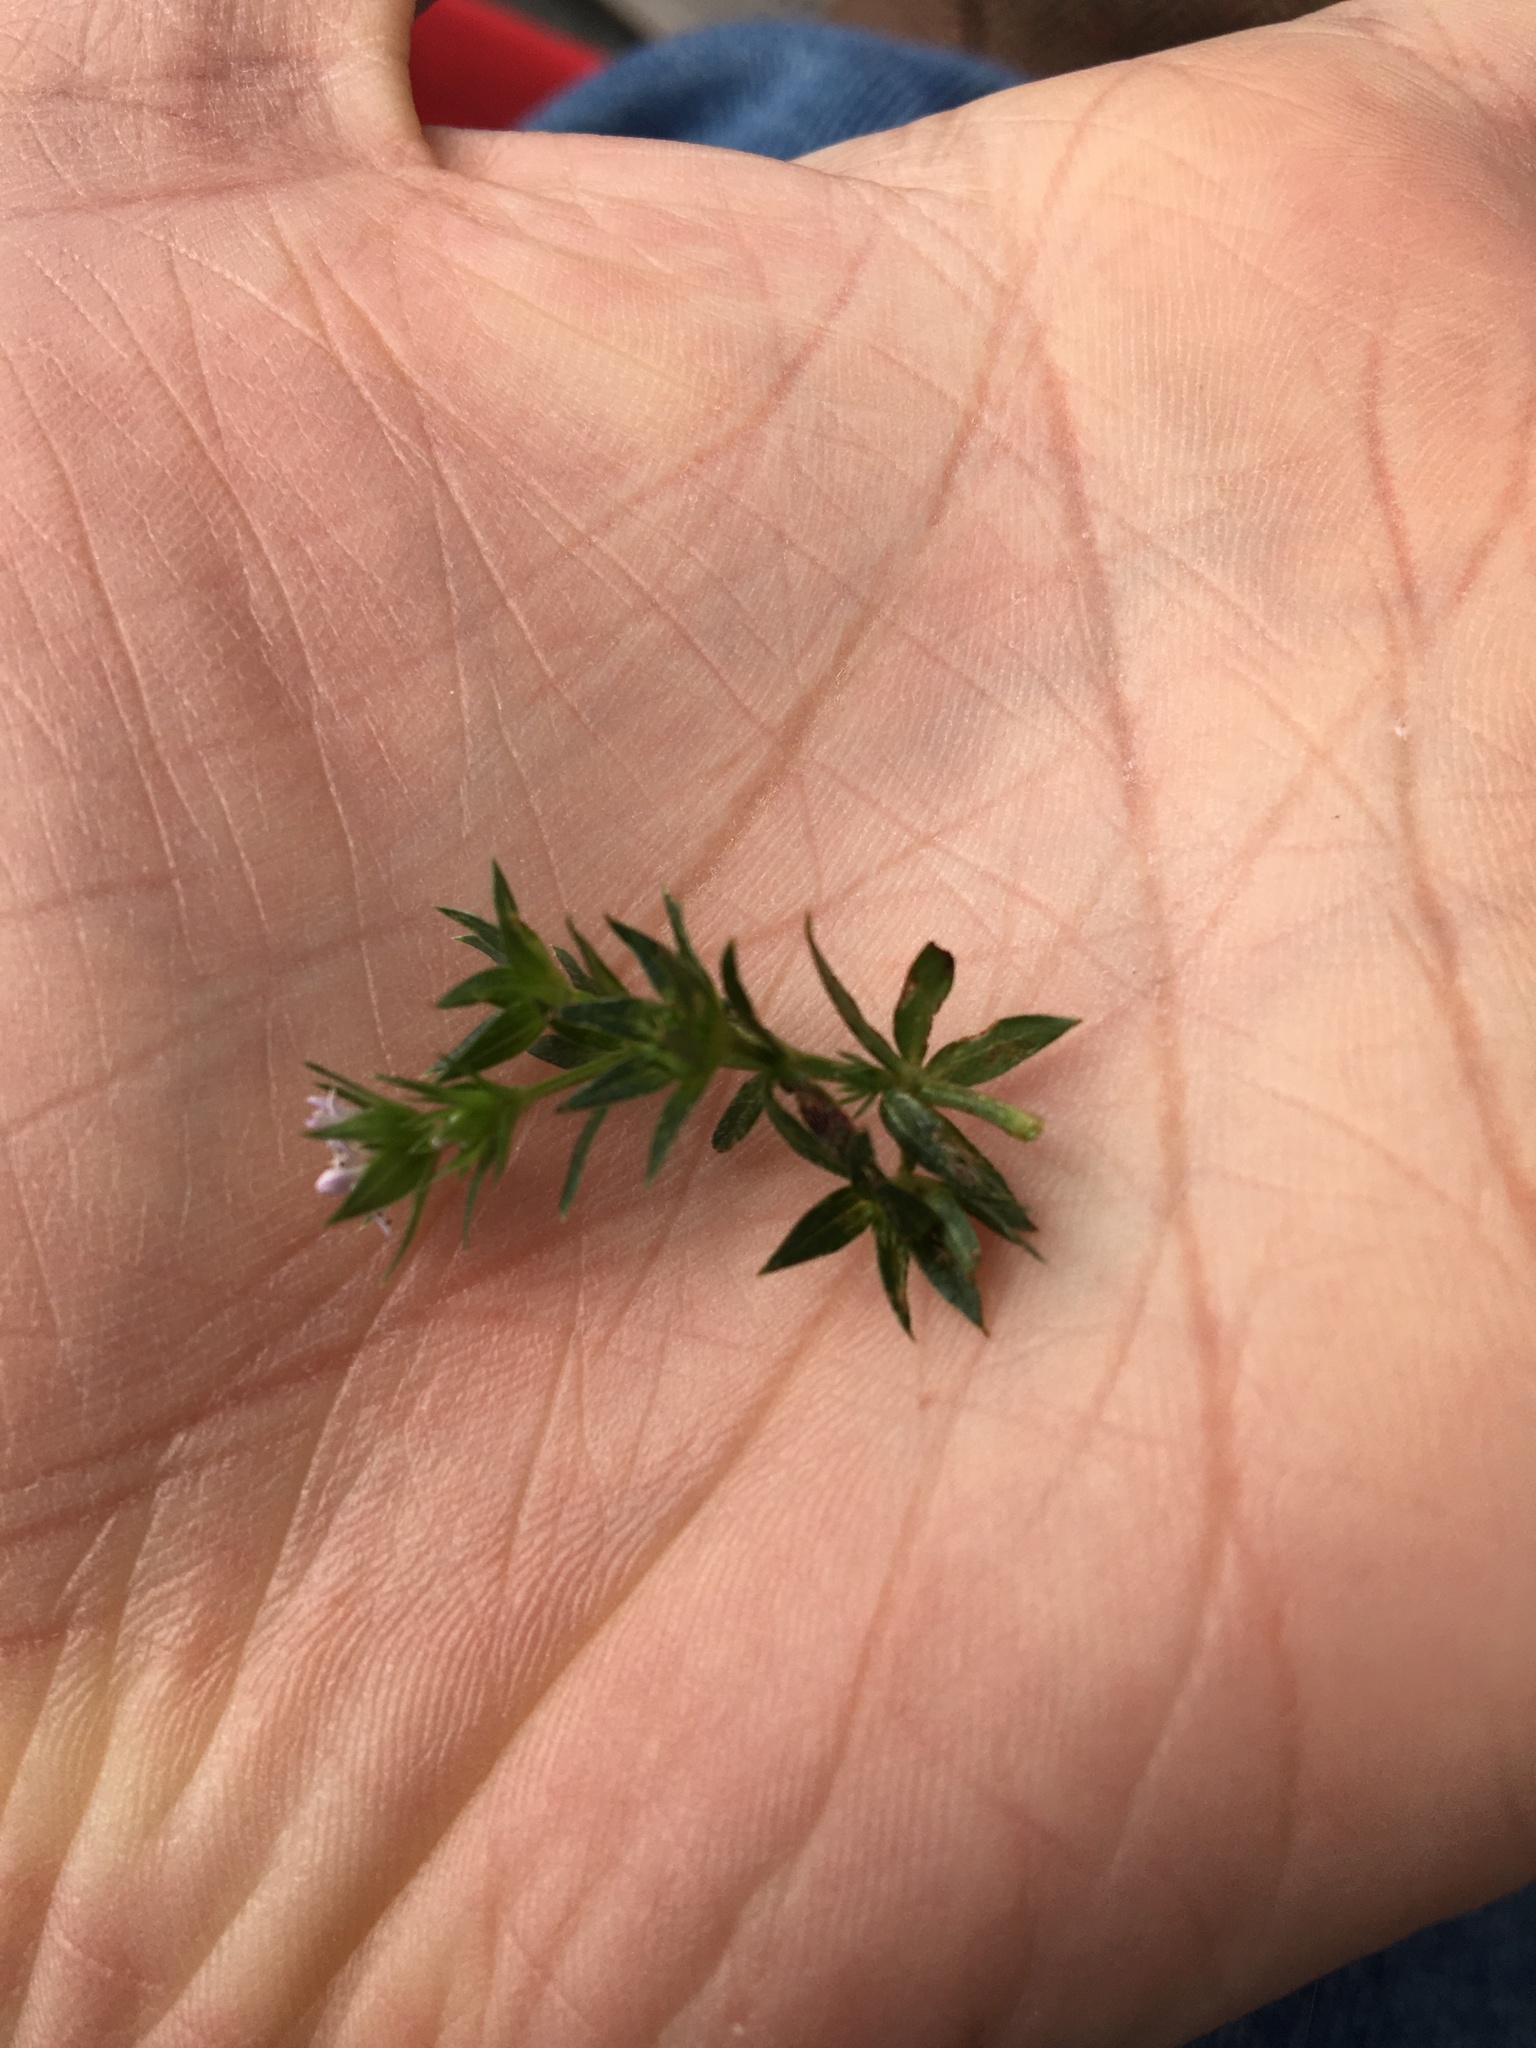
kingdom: Plantae
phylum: Tracheophyta
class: Magnoliopsida
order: Gentianales
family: Rubiaceae
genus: Sherardia
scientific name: Sherardia arvensis
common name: Field madder
